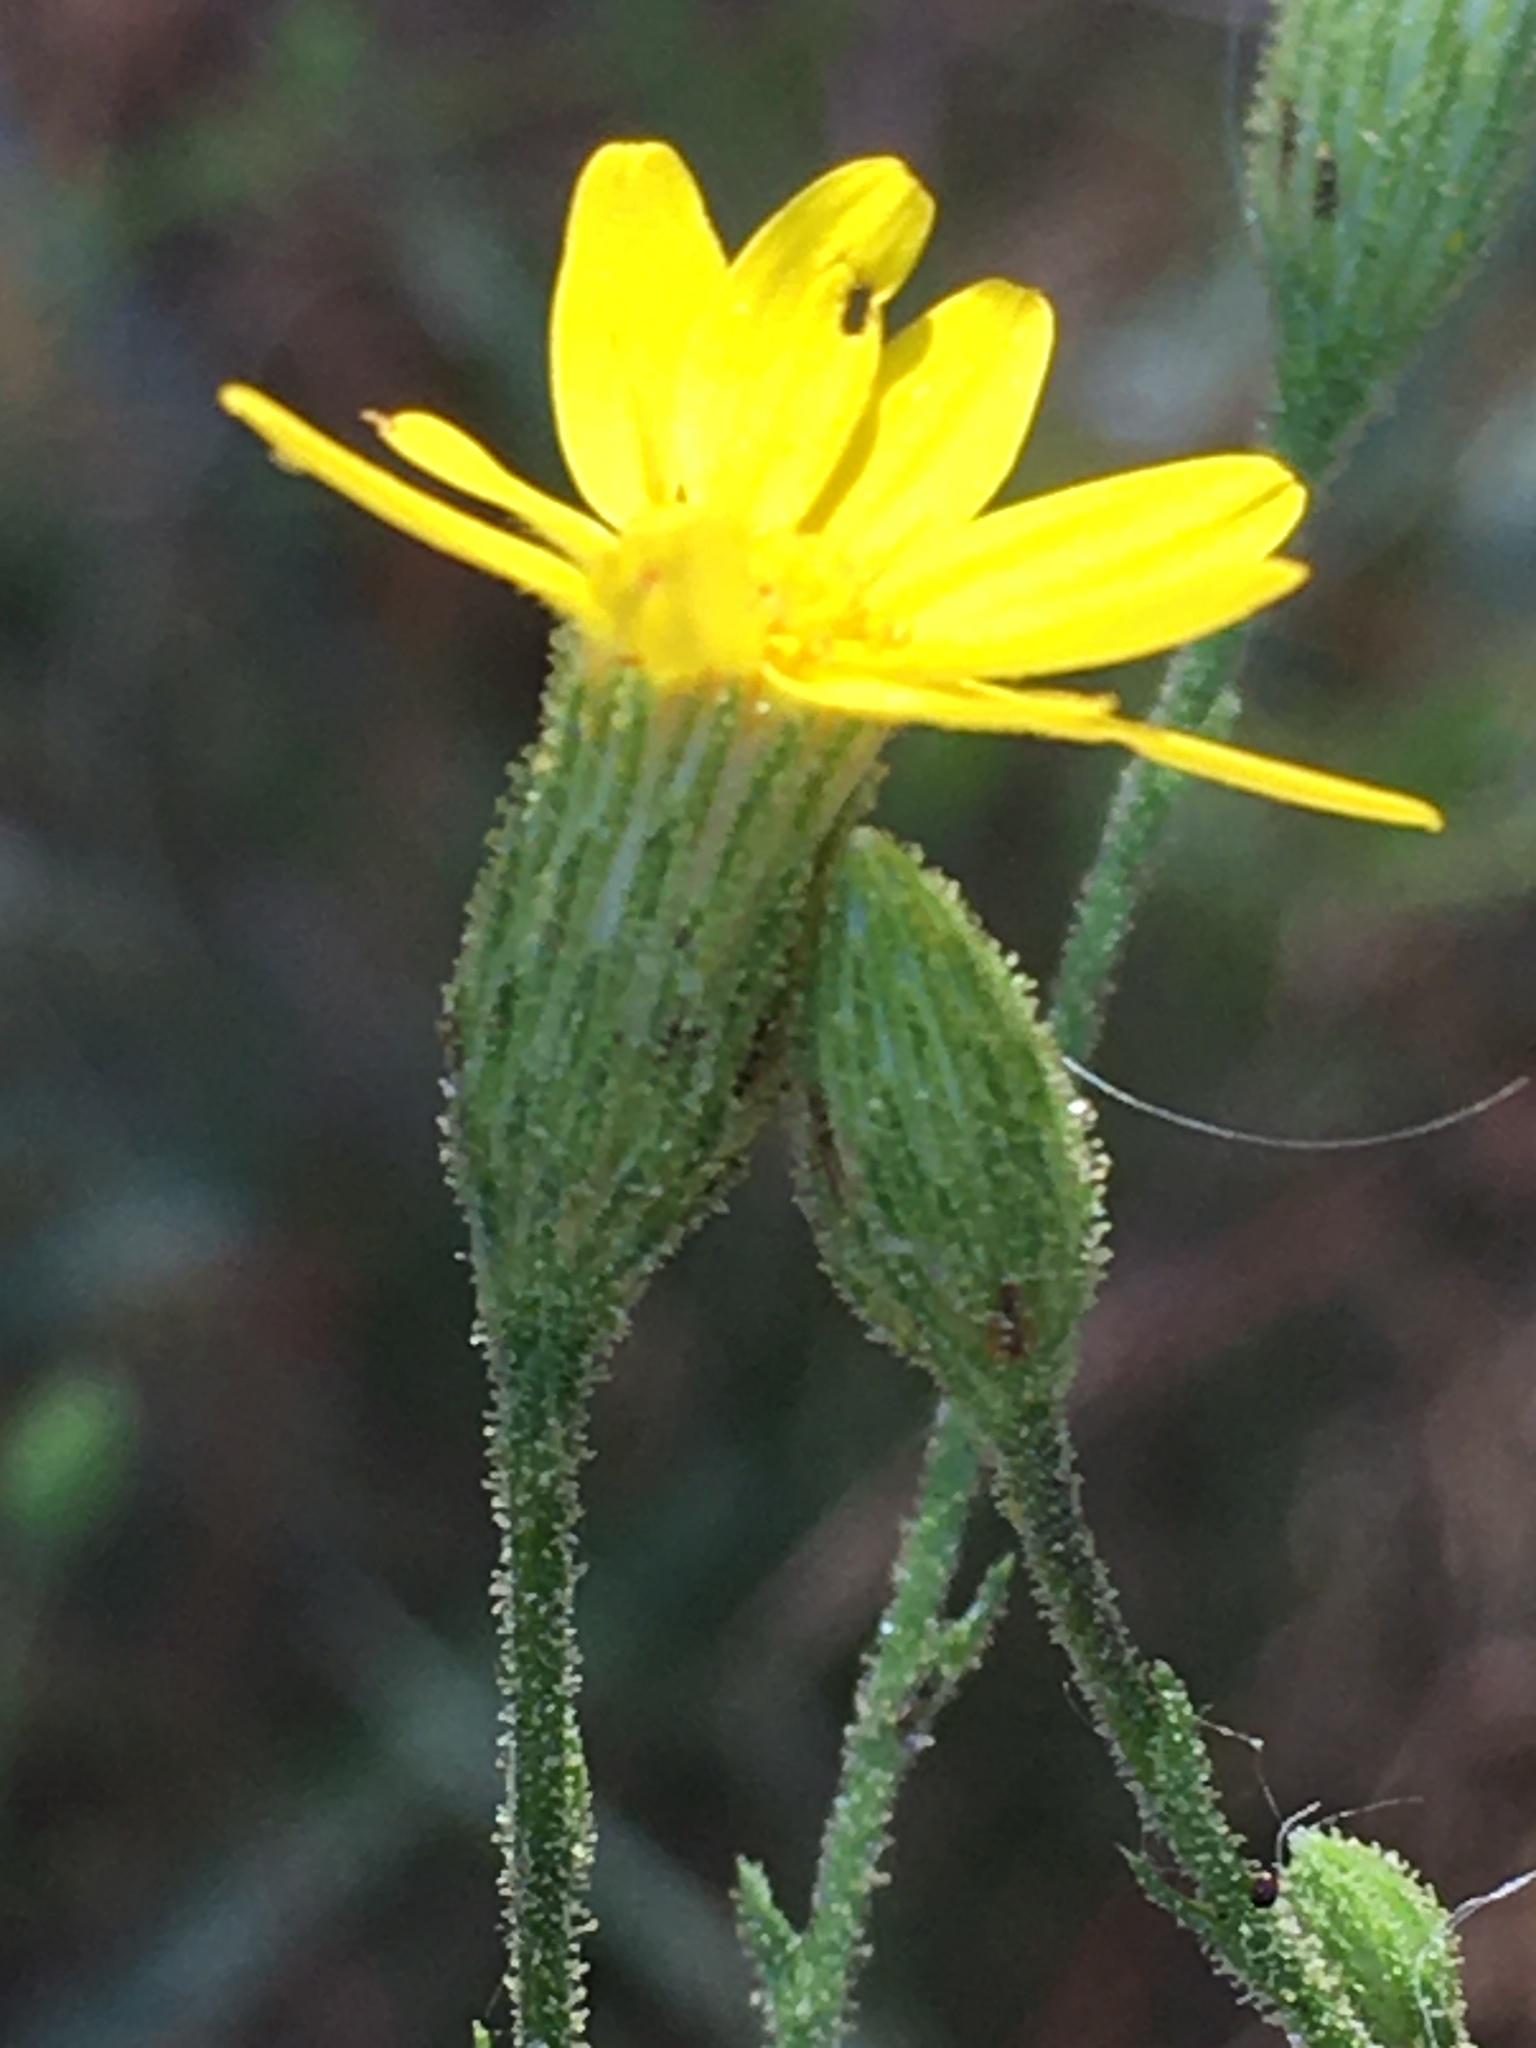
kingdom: Plantae
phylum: Tracheophyta
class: Magnoliopsida
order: Asterales
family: Asteraceae
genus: Pityopsis
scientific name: Pityopsis aspera
